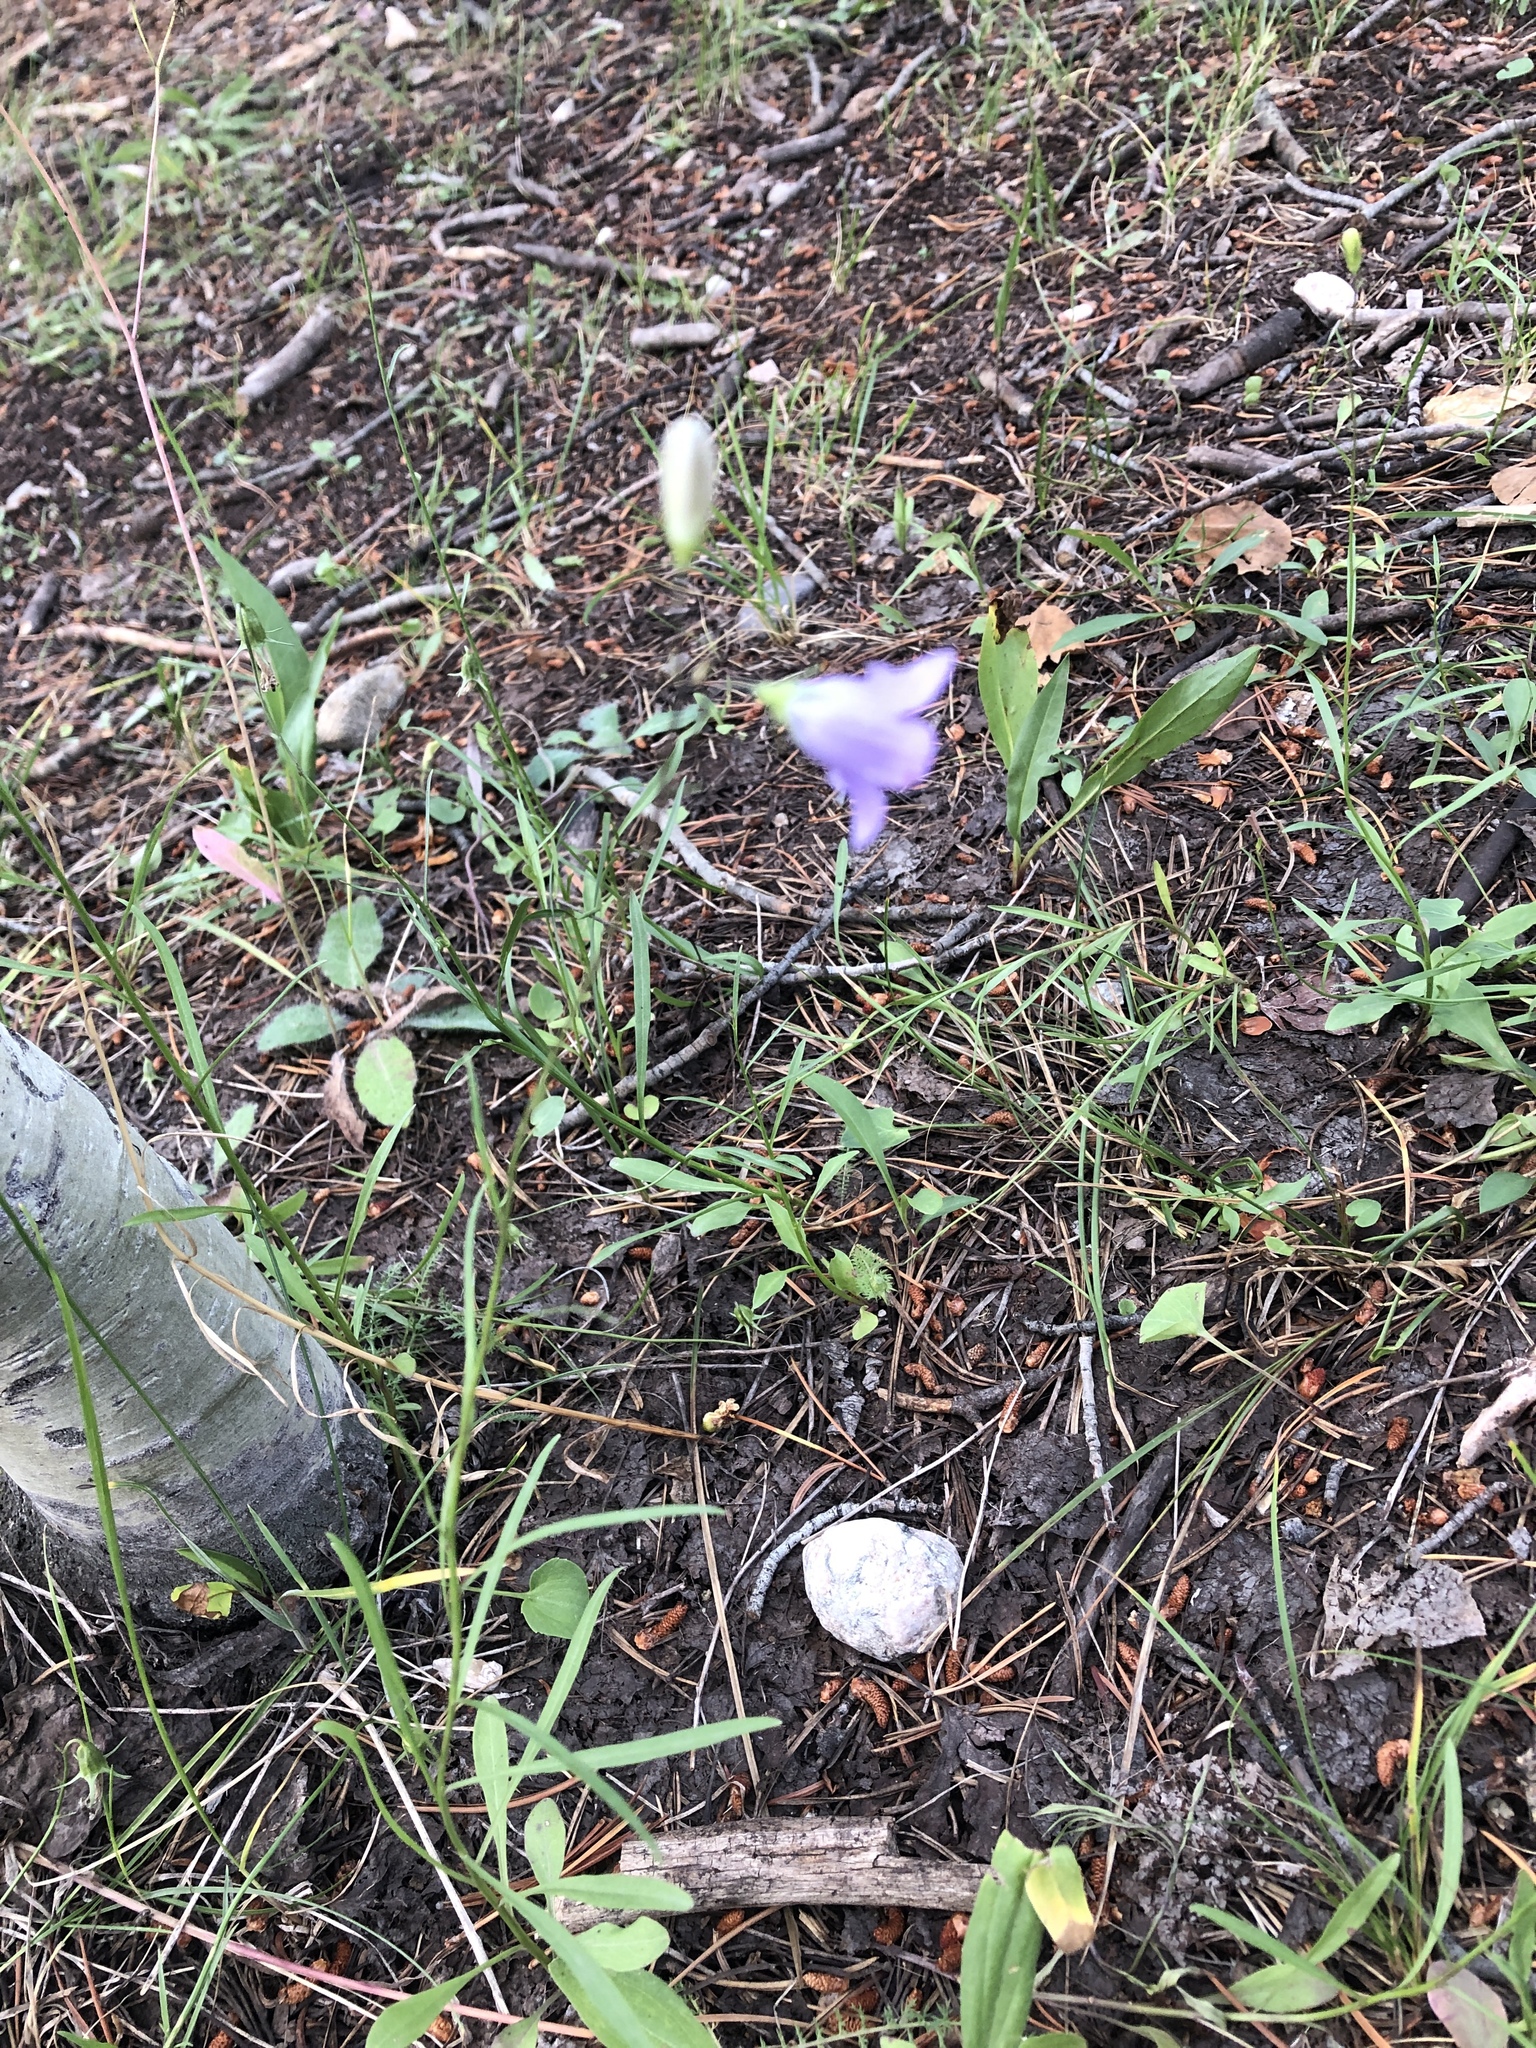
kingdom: Plantae
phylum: Tracheophyta
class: Magnoliopsida
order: Asterales
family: Campanulaceae
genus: Campanula
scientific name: Campanula petiolata
